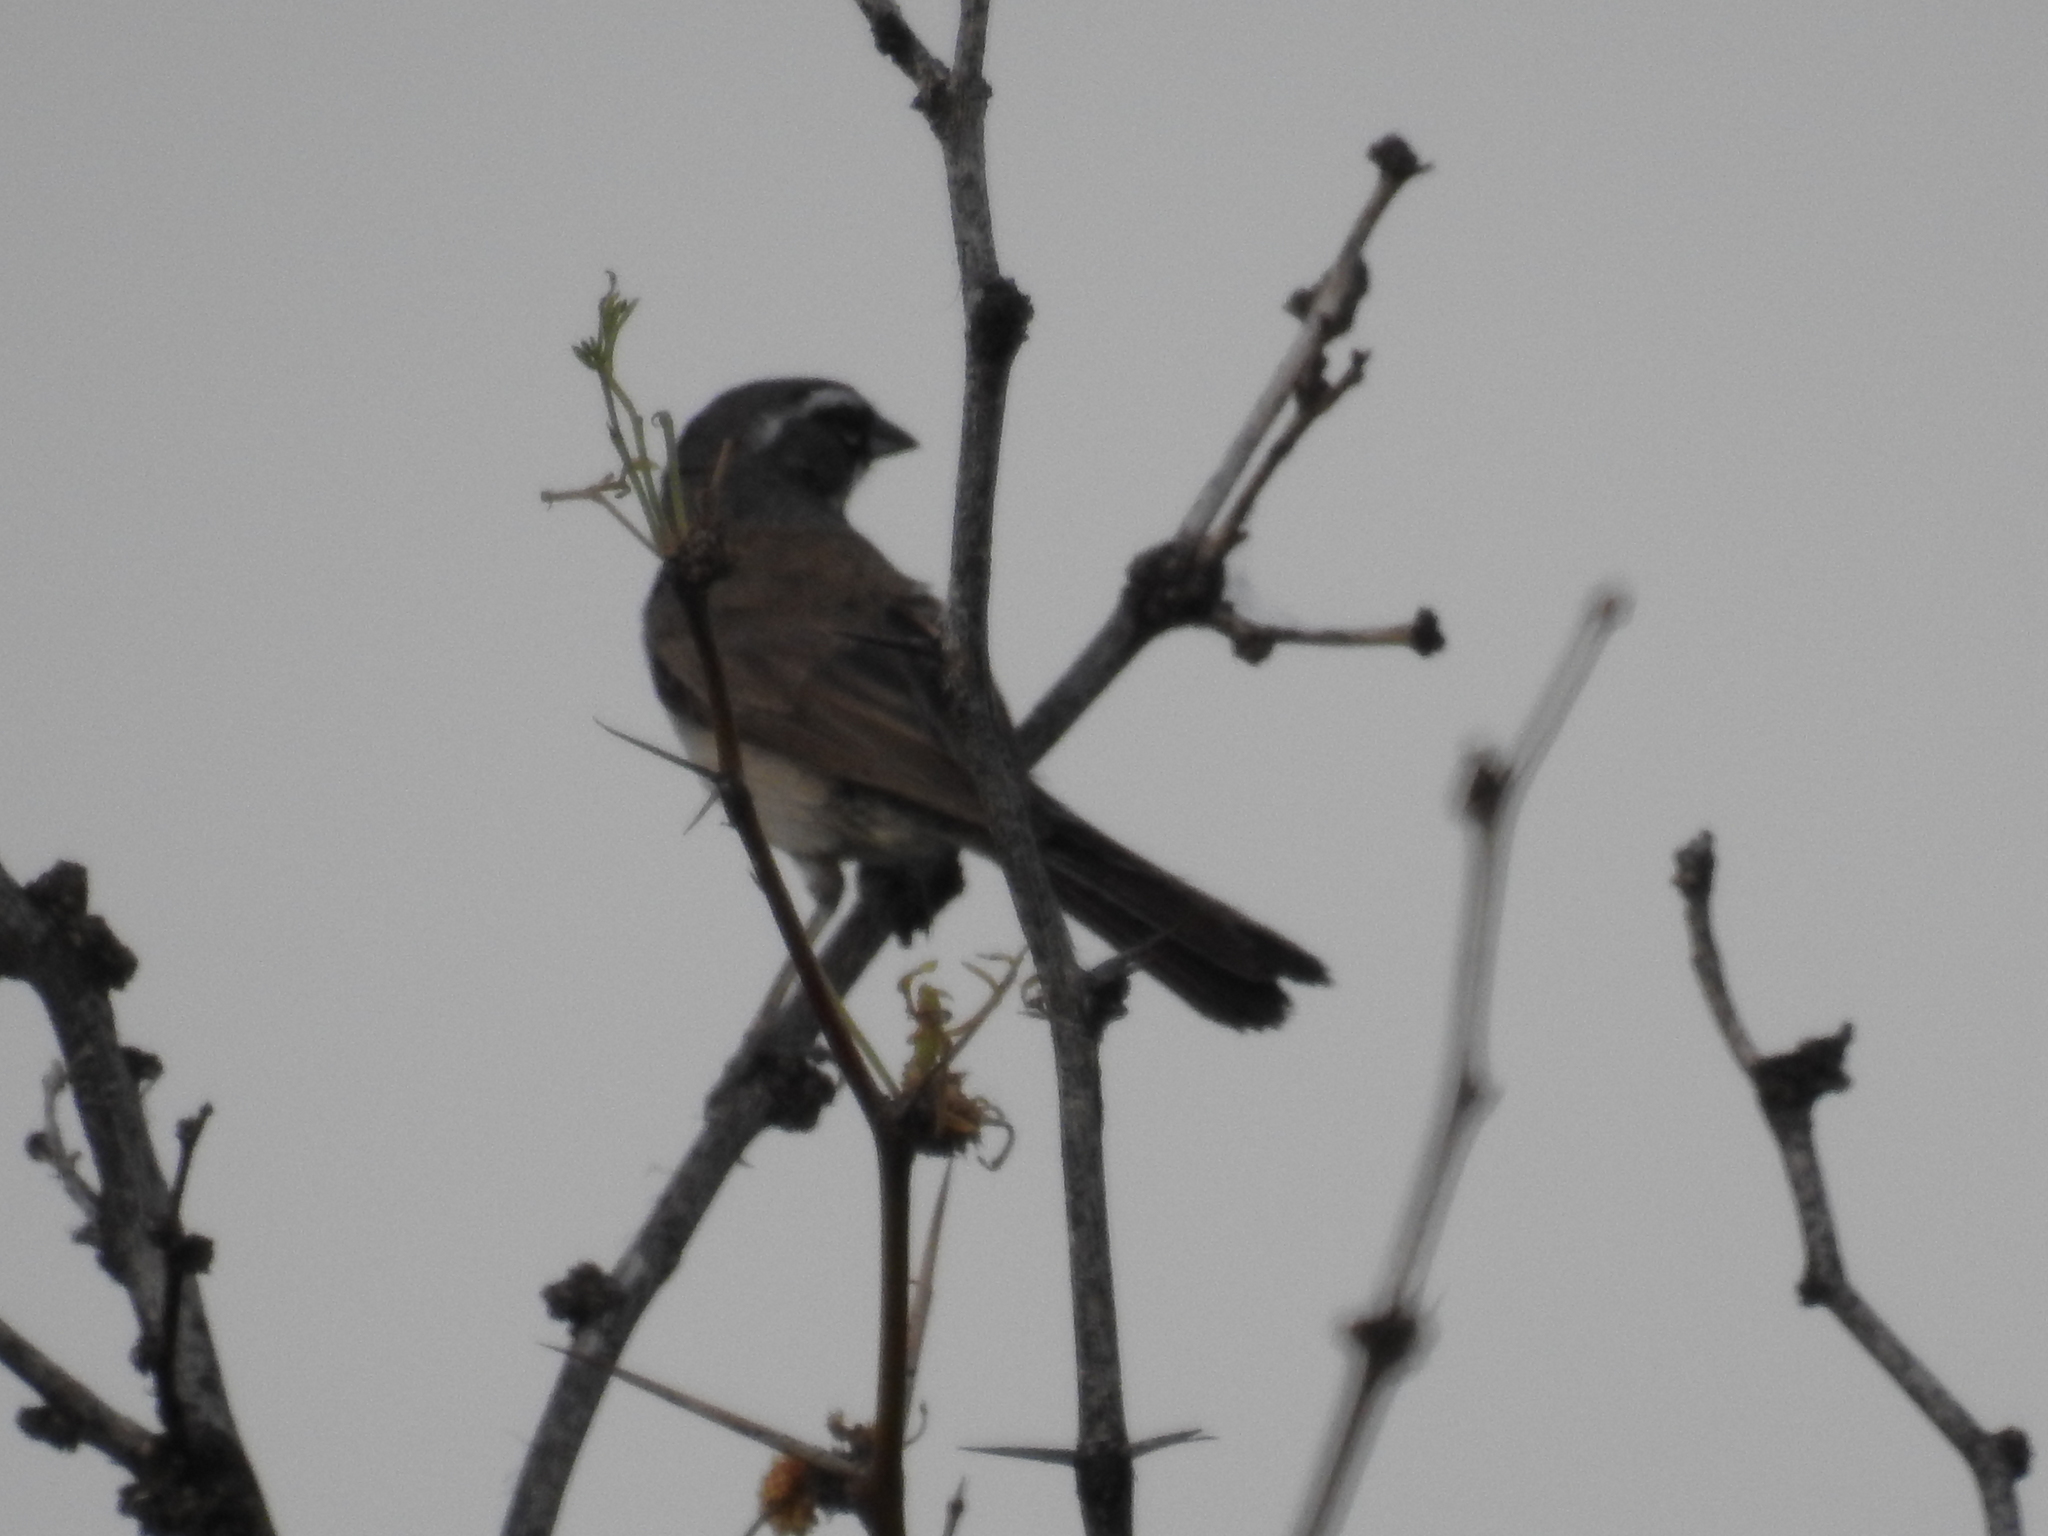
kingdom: Animalia
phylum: Chordata
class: Aves
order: Passeriformes
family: Passerellidae
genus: Amphispiza
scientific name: Amphispiza bilineata
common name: Black-throated sparrow
